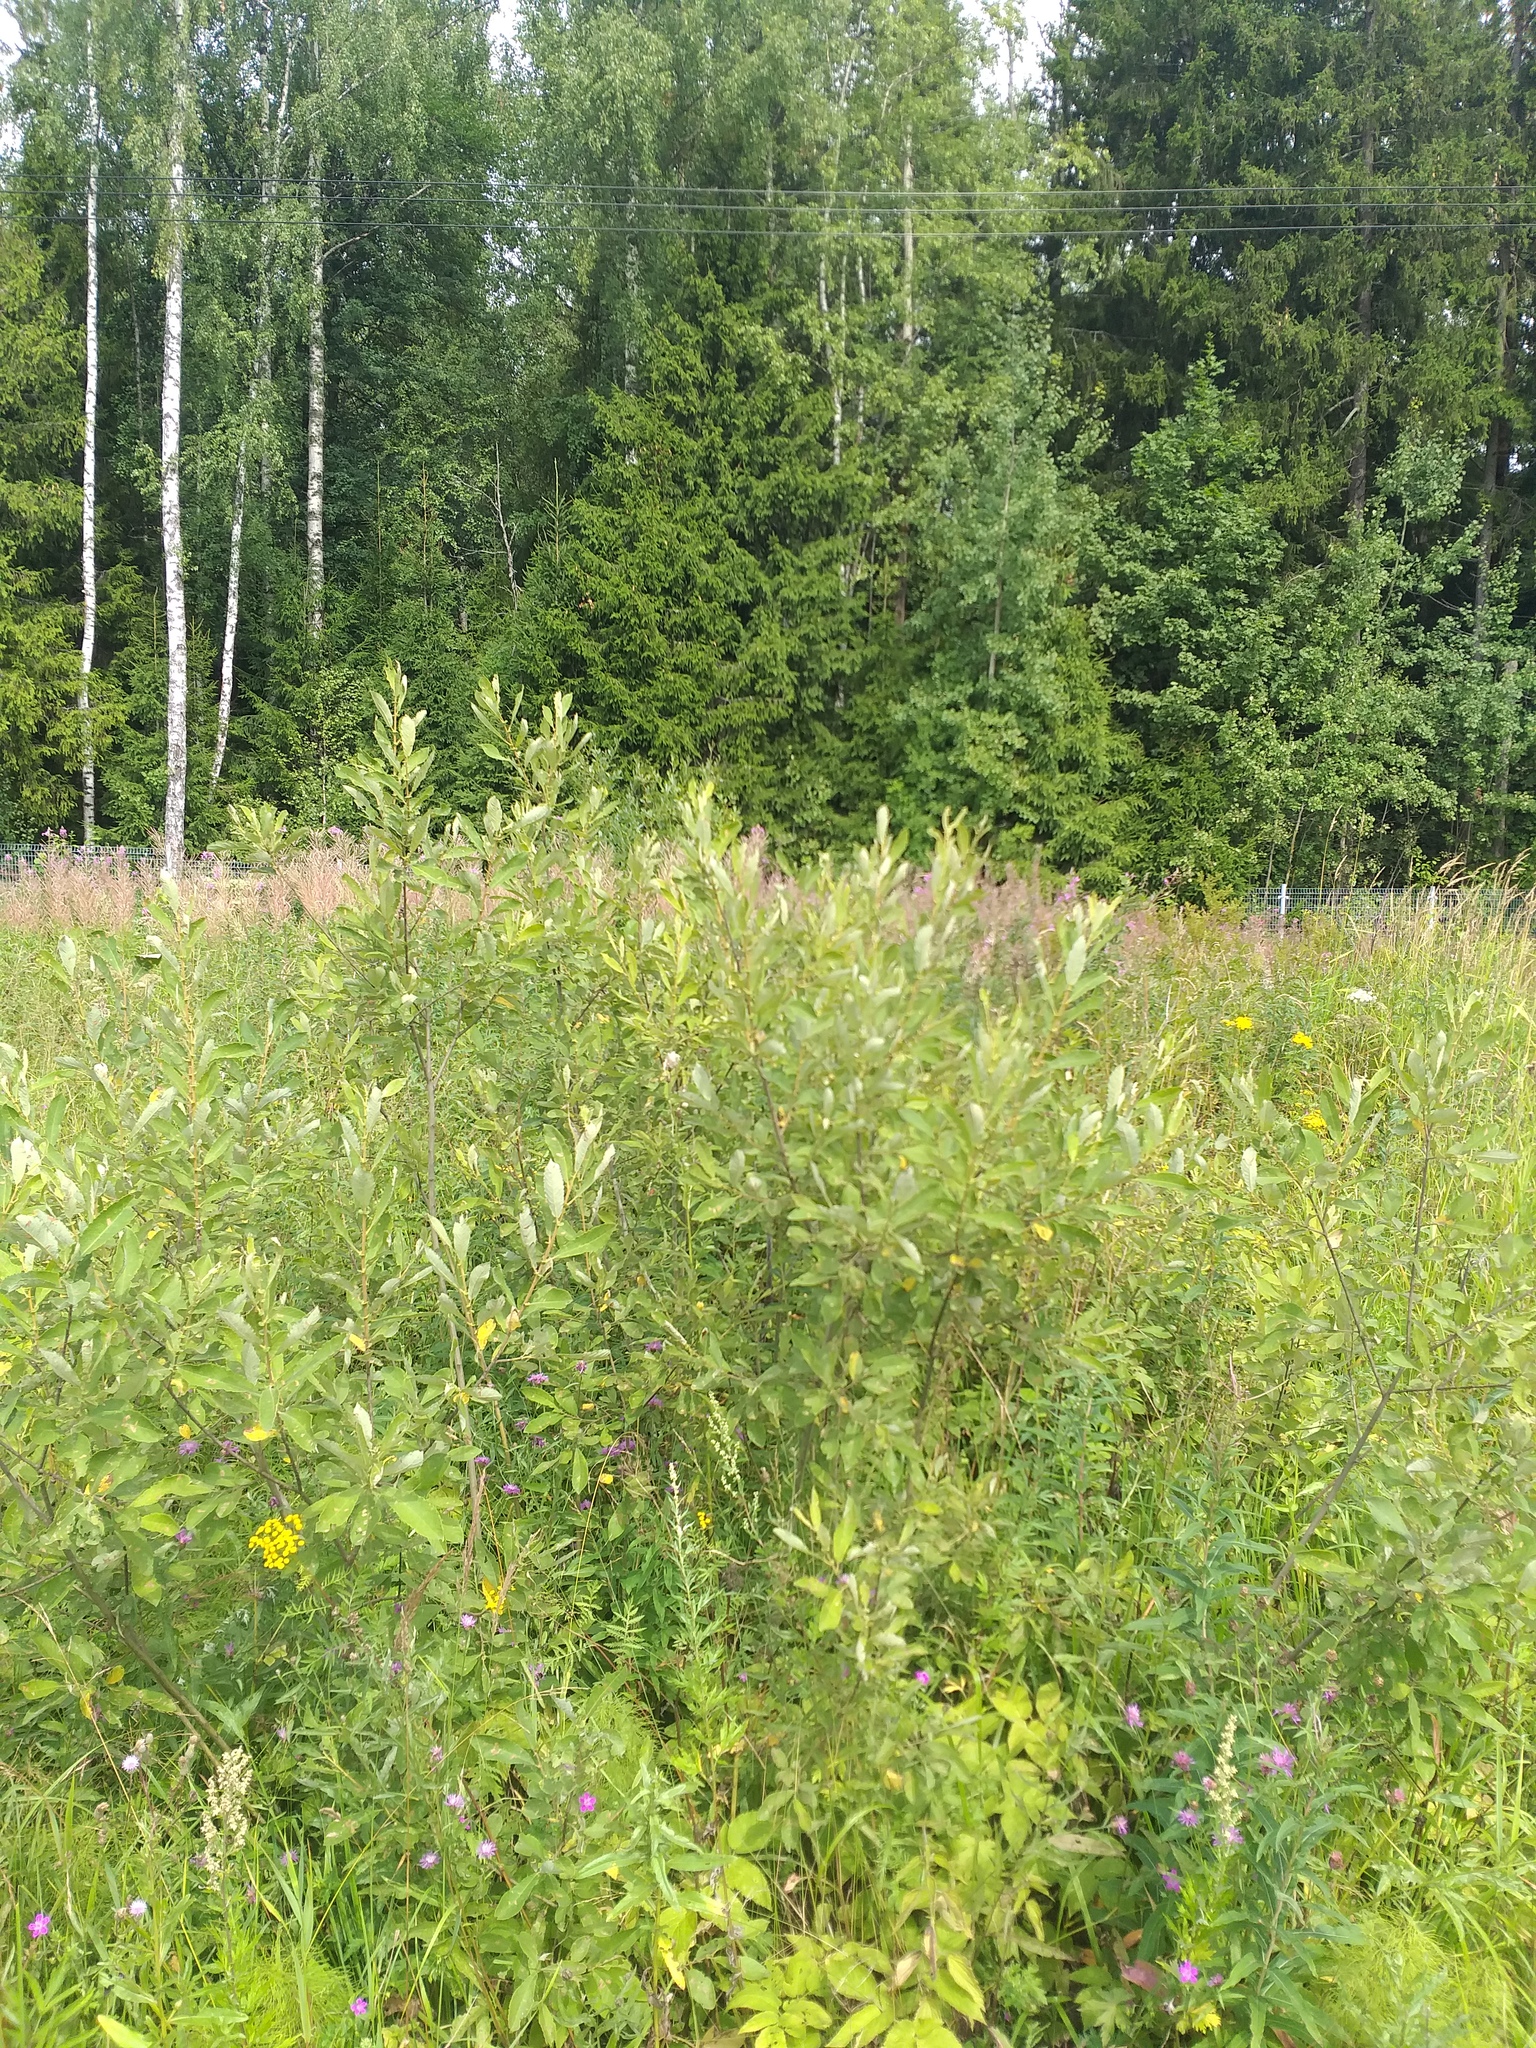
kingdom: Plantae
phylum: Tracheophyta
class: Magnoliopsida
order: Malpighiales
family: Salicaceae
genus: Salix
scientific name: Salix cinerea
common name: Common sallow
